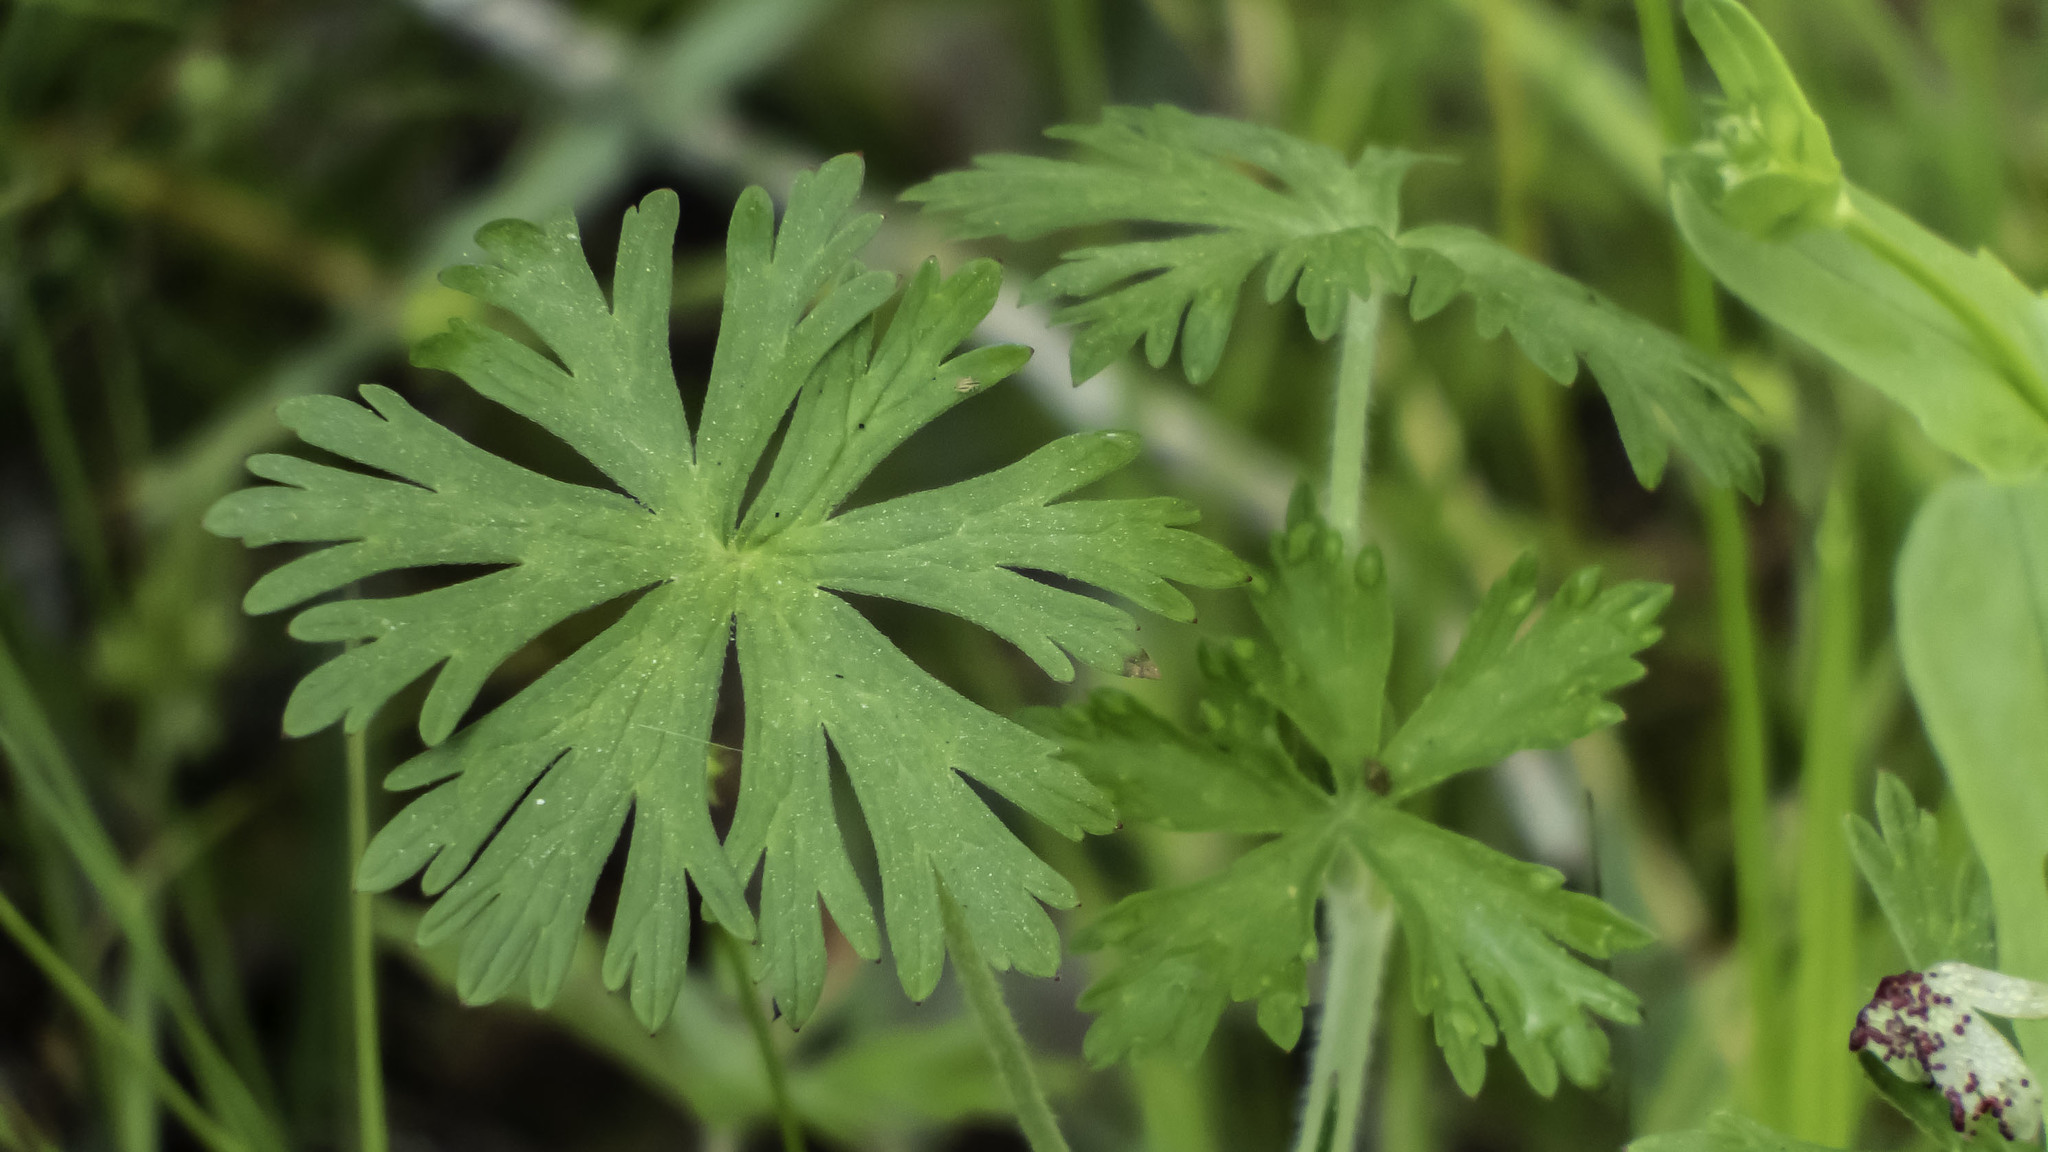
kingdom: Plantae
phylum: Tracheophyta
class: Magnoliopsida
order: Geraniales
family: Geraniaceae
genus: Geranium
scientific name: Geranium carolinianum
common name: Carolina crane's-bill
